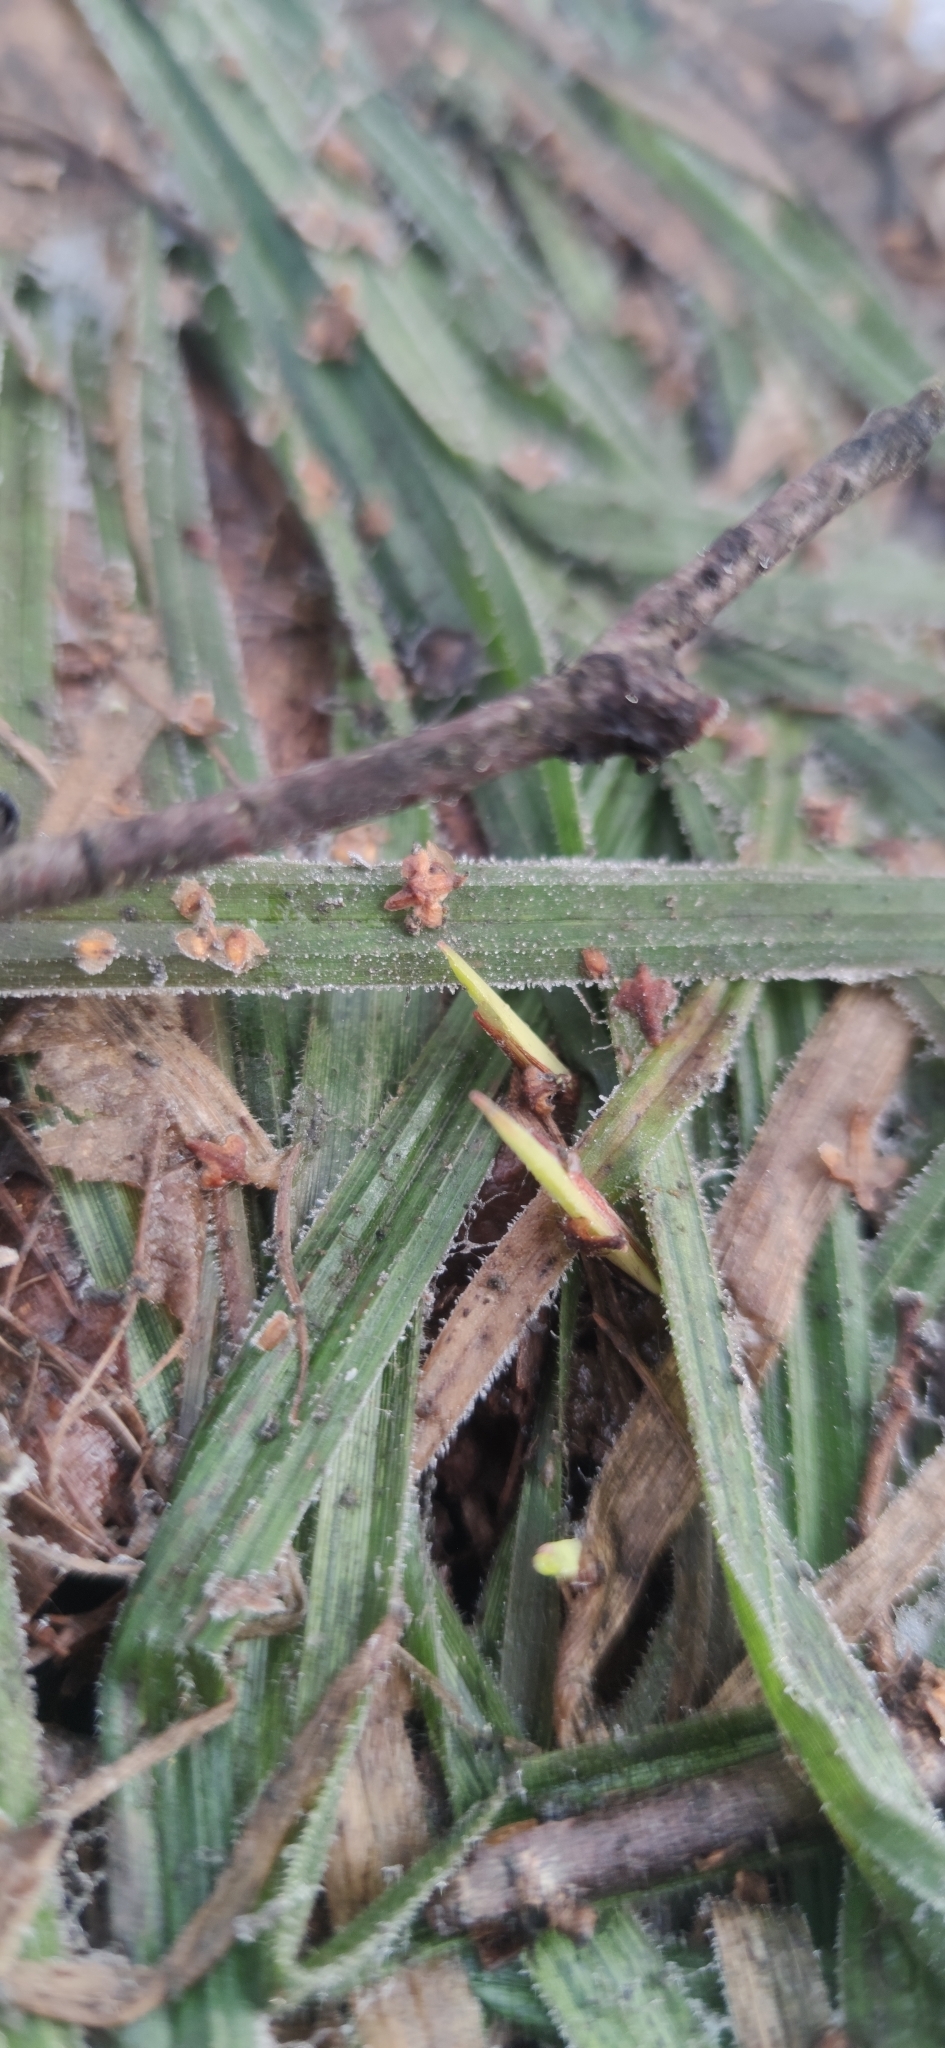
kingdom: Plantae
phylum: Tracheophyta
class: Liliopsida
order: Poales
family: Cyperaceae
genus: Carex
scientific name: Carex pilosa
